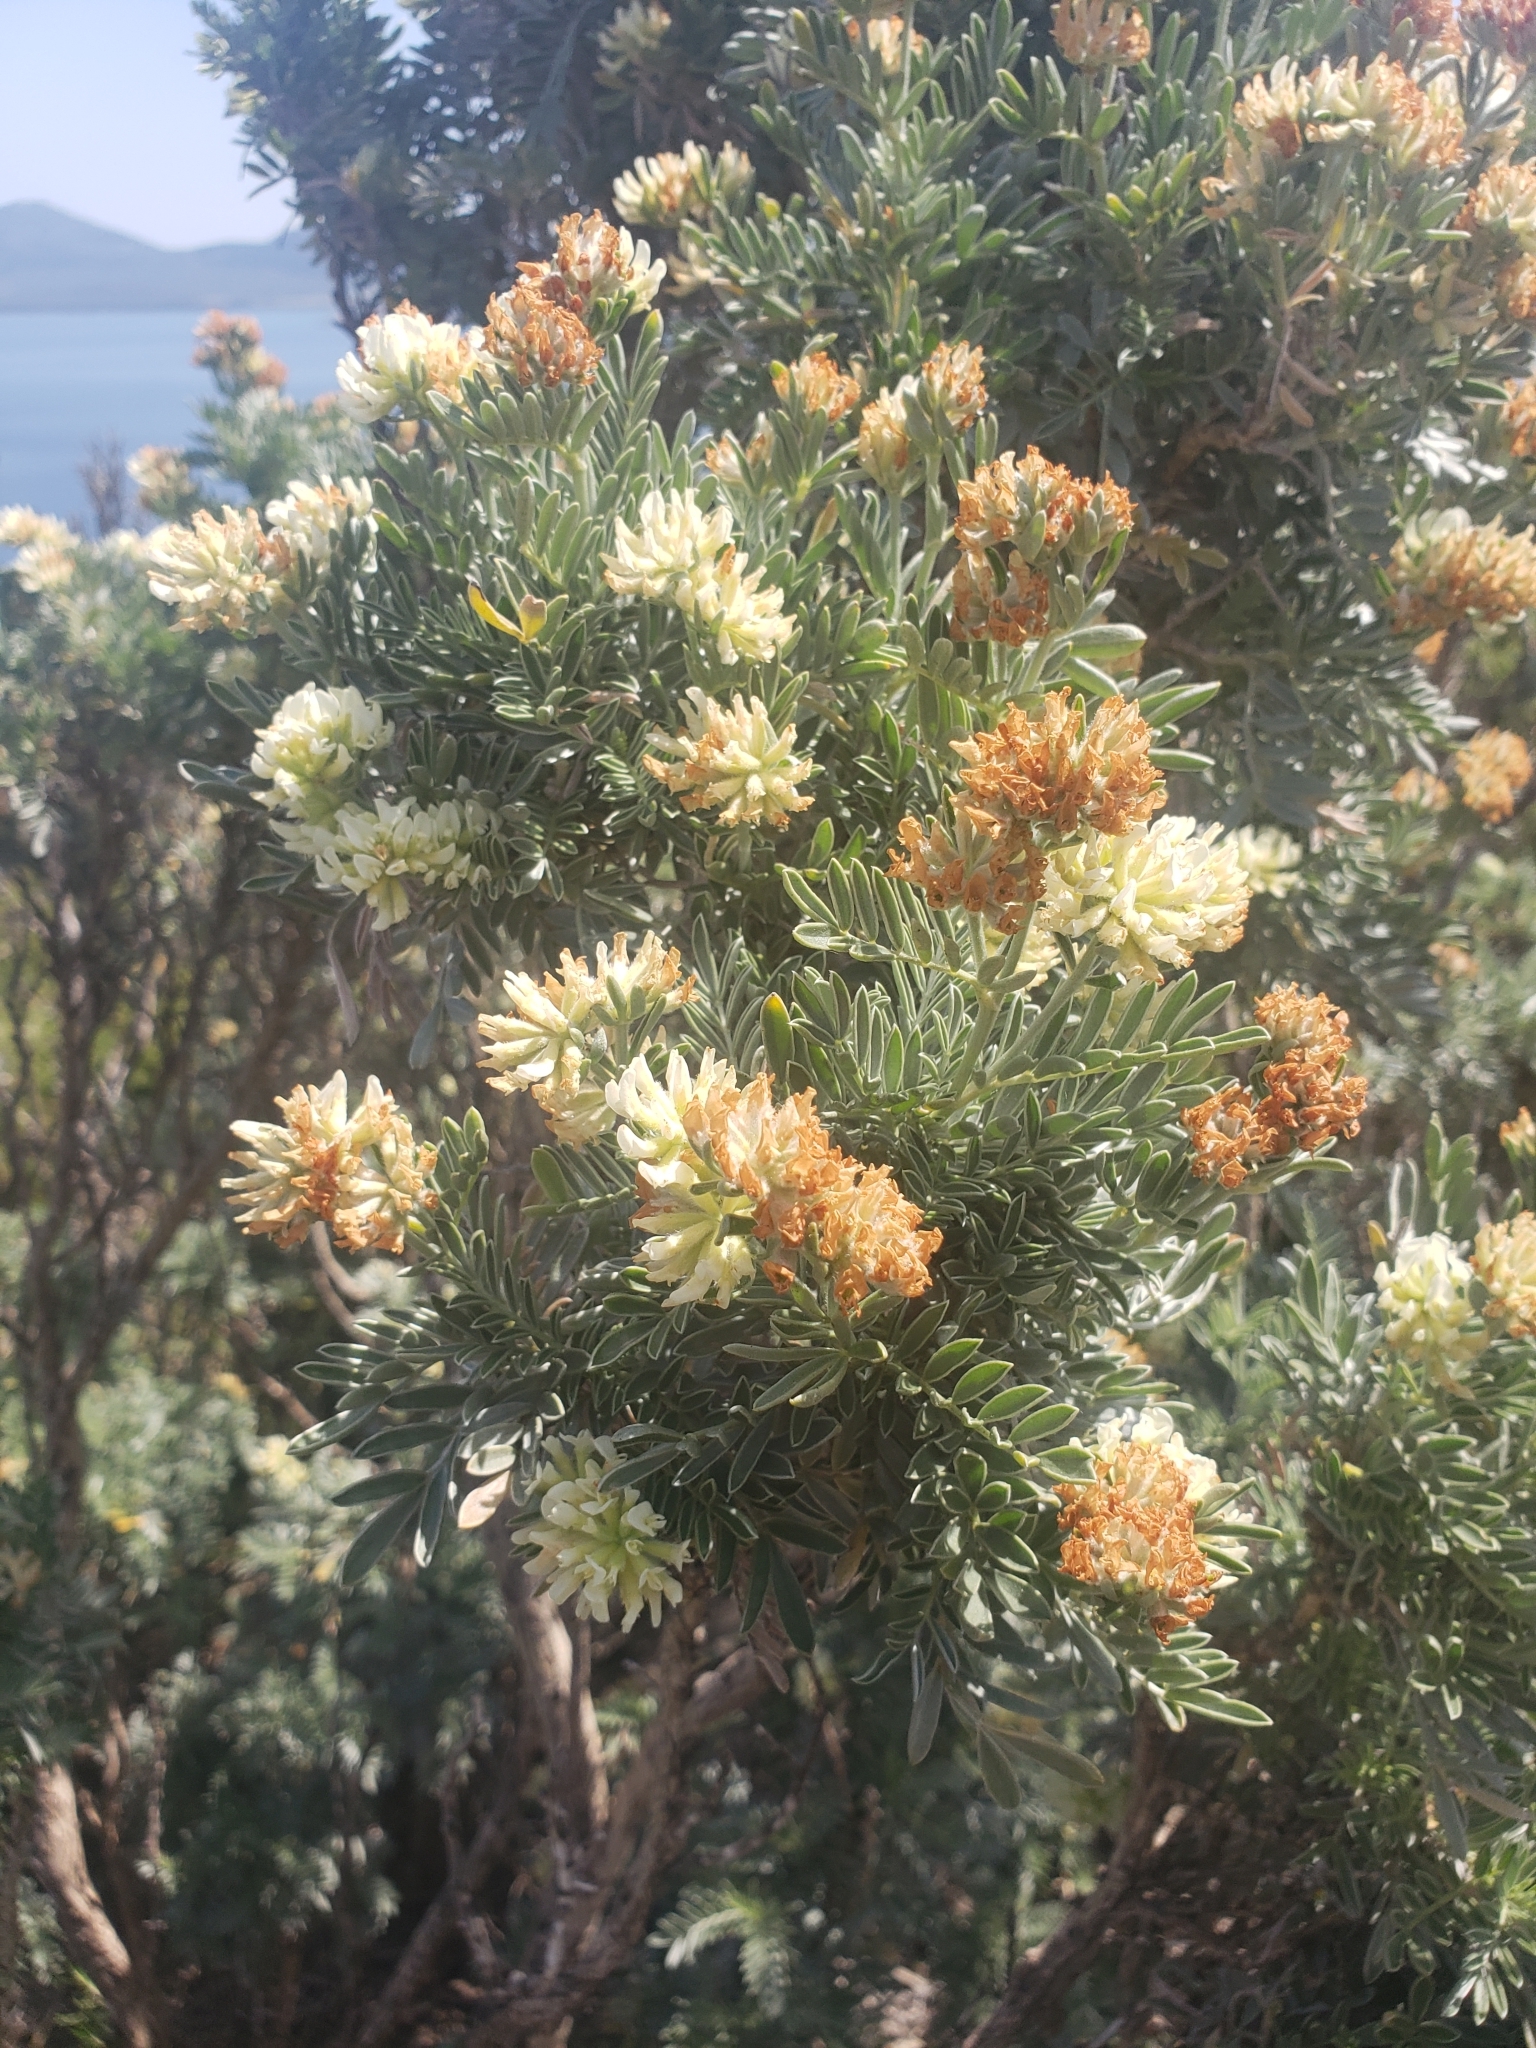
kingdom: Plantae
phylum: Tracheophyta
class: Magnoliopsida
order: Fabales
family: Fabaceae
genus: Anthyllis
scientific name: Anthyllis barba-jovis
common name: Jupiter's-beard
